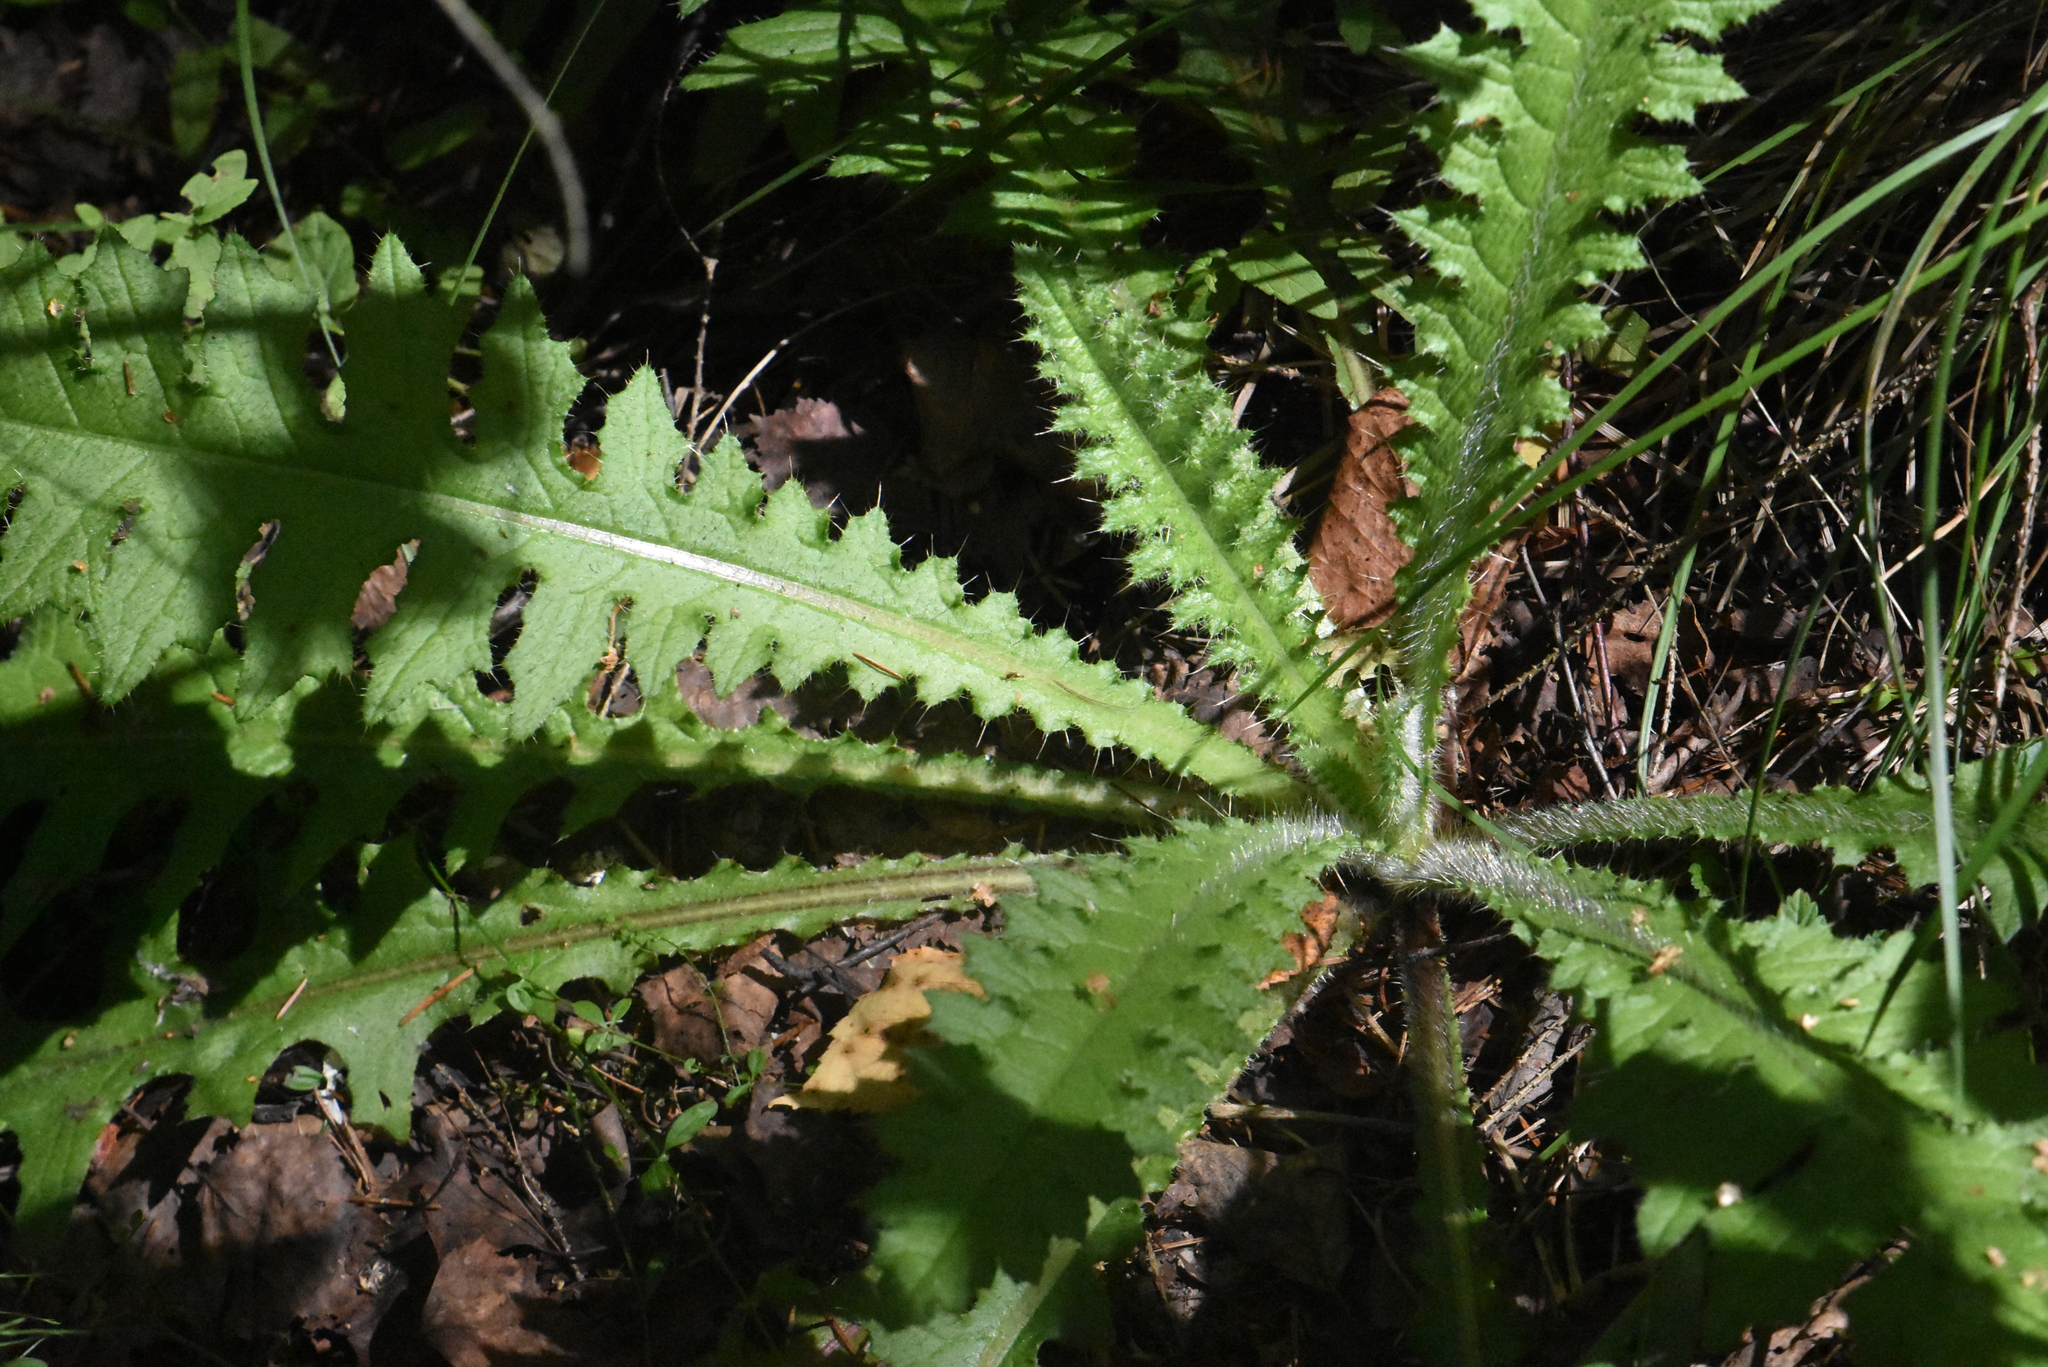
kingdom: Plantae
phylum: Tracheophyta
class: Magnoliopsida
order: Asterales
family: Asteraceae
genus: Cirsium
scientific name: Cirsium palustre
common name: Marsh thistle
